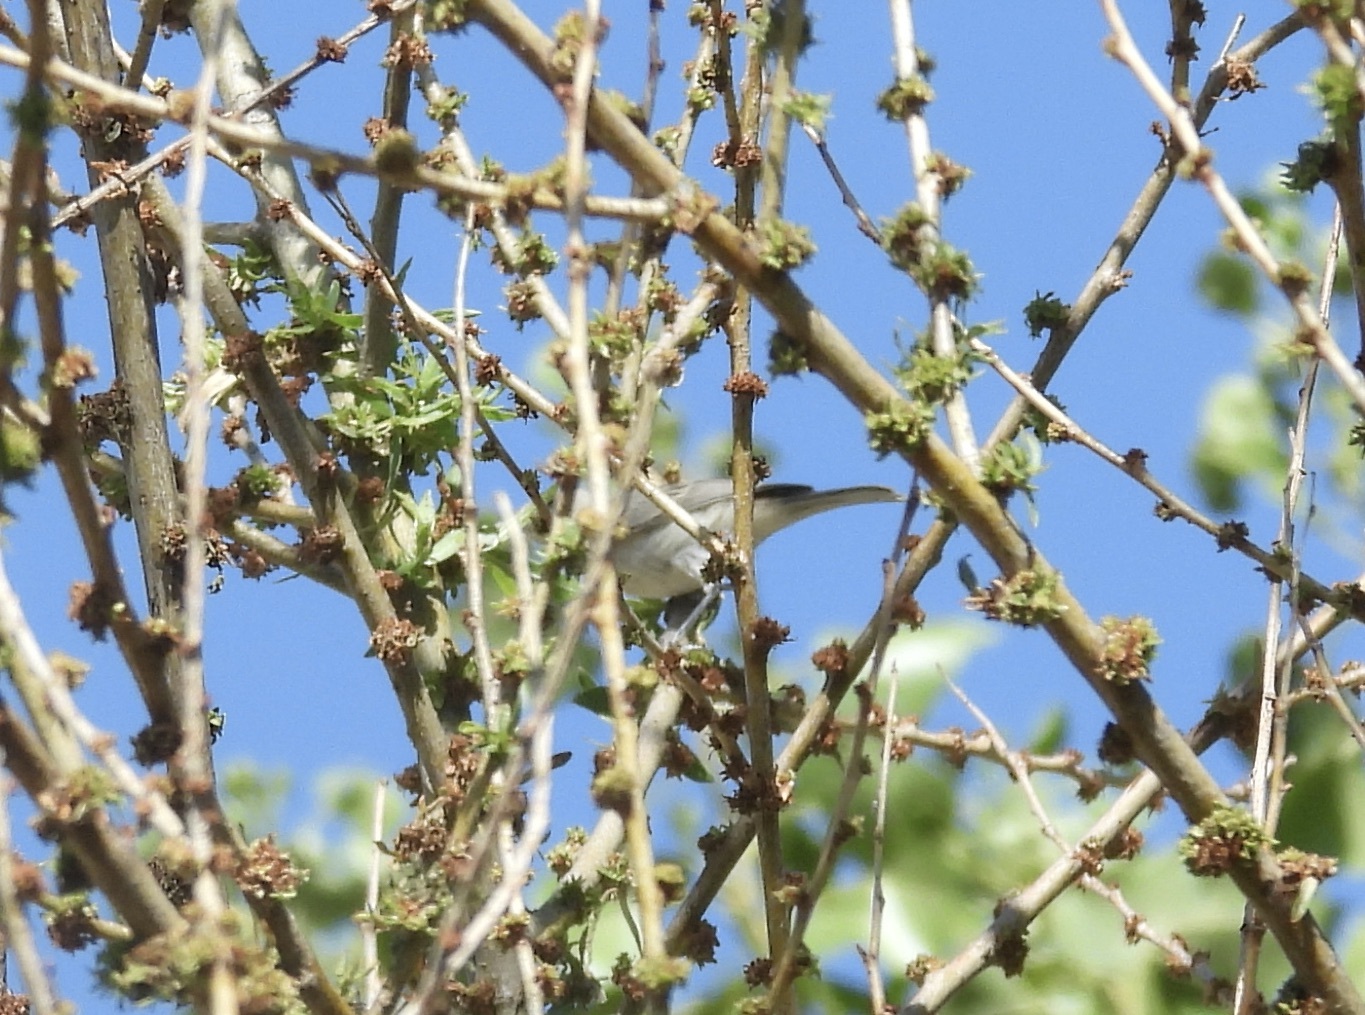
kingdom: Animalia
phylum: Chordata
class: Aves
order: Passeriformes
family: Parulidae
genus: Leiothlypis
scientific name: Leiothlypis luciae
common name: Lucy's warbler
